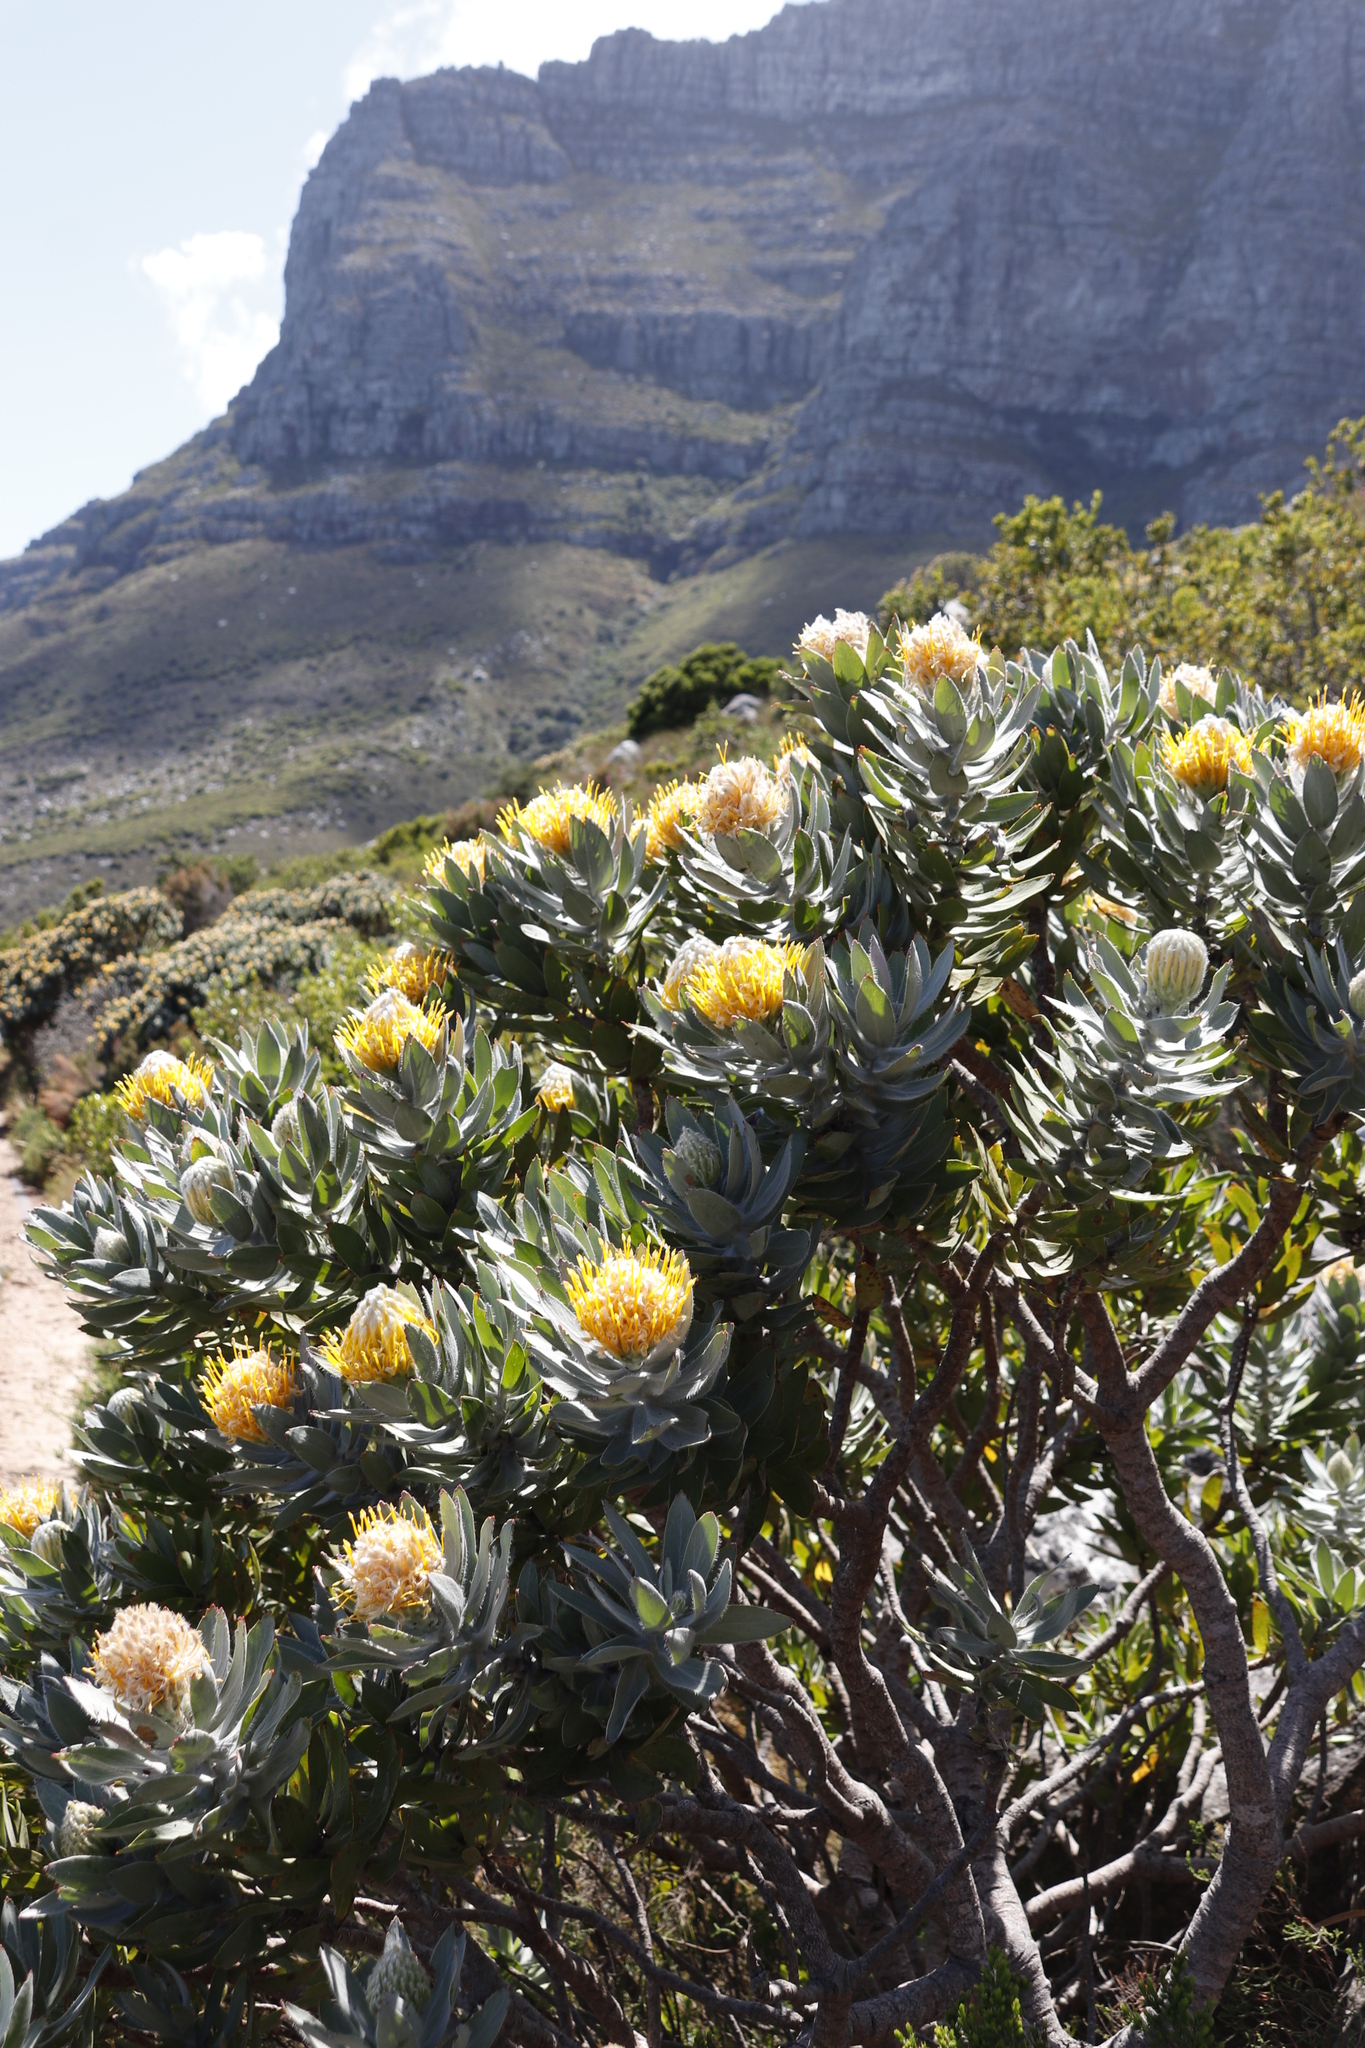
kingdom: Plantae
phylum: Tracheophyta
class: Magnoliopsida
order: Proteales
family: Proteaceae
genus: Leucospermum
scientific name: Leucospermum conocarpodendron
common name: Tree pincushion
